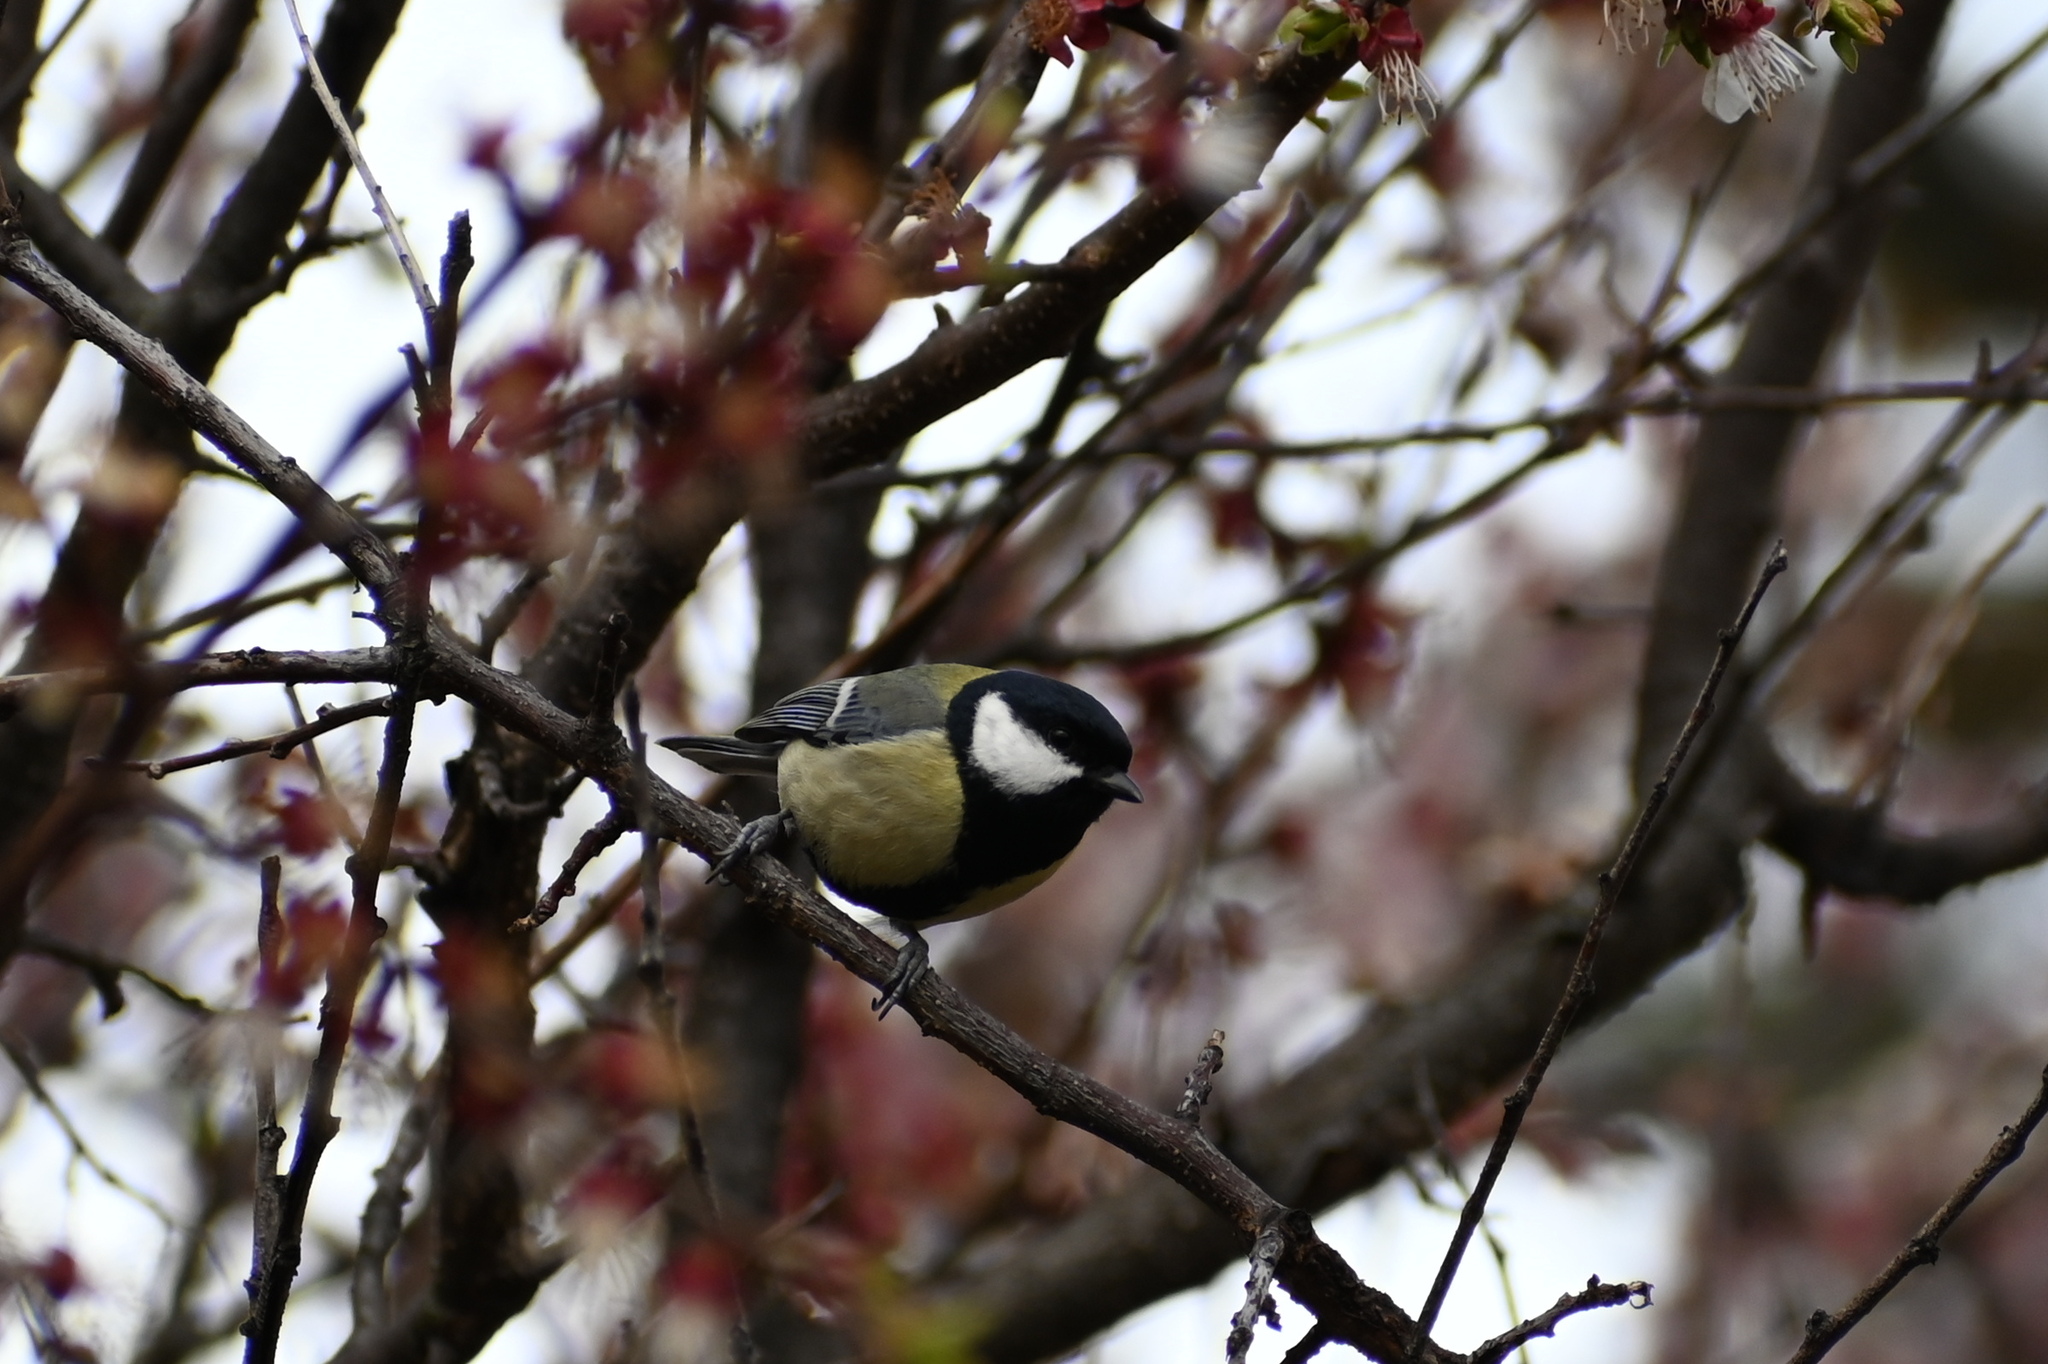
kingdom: Animalia
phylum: Chordata
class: Aves
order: Passeriformes
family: Paridae
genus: Parus
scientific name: Parus major
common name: Great tit
